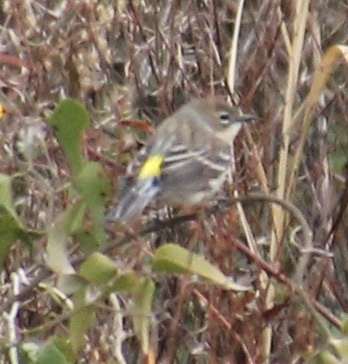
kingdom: Animalia
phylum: Chordata
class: Aves
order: Passeriformes
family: Parulidae
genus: Setophaga
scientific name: Setophaga coronata
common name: Myrtle warbler
